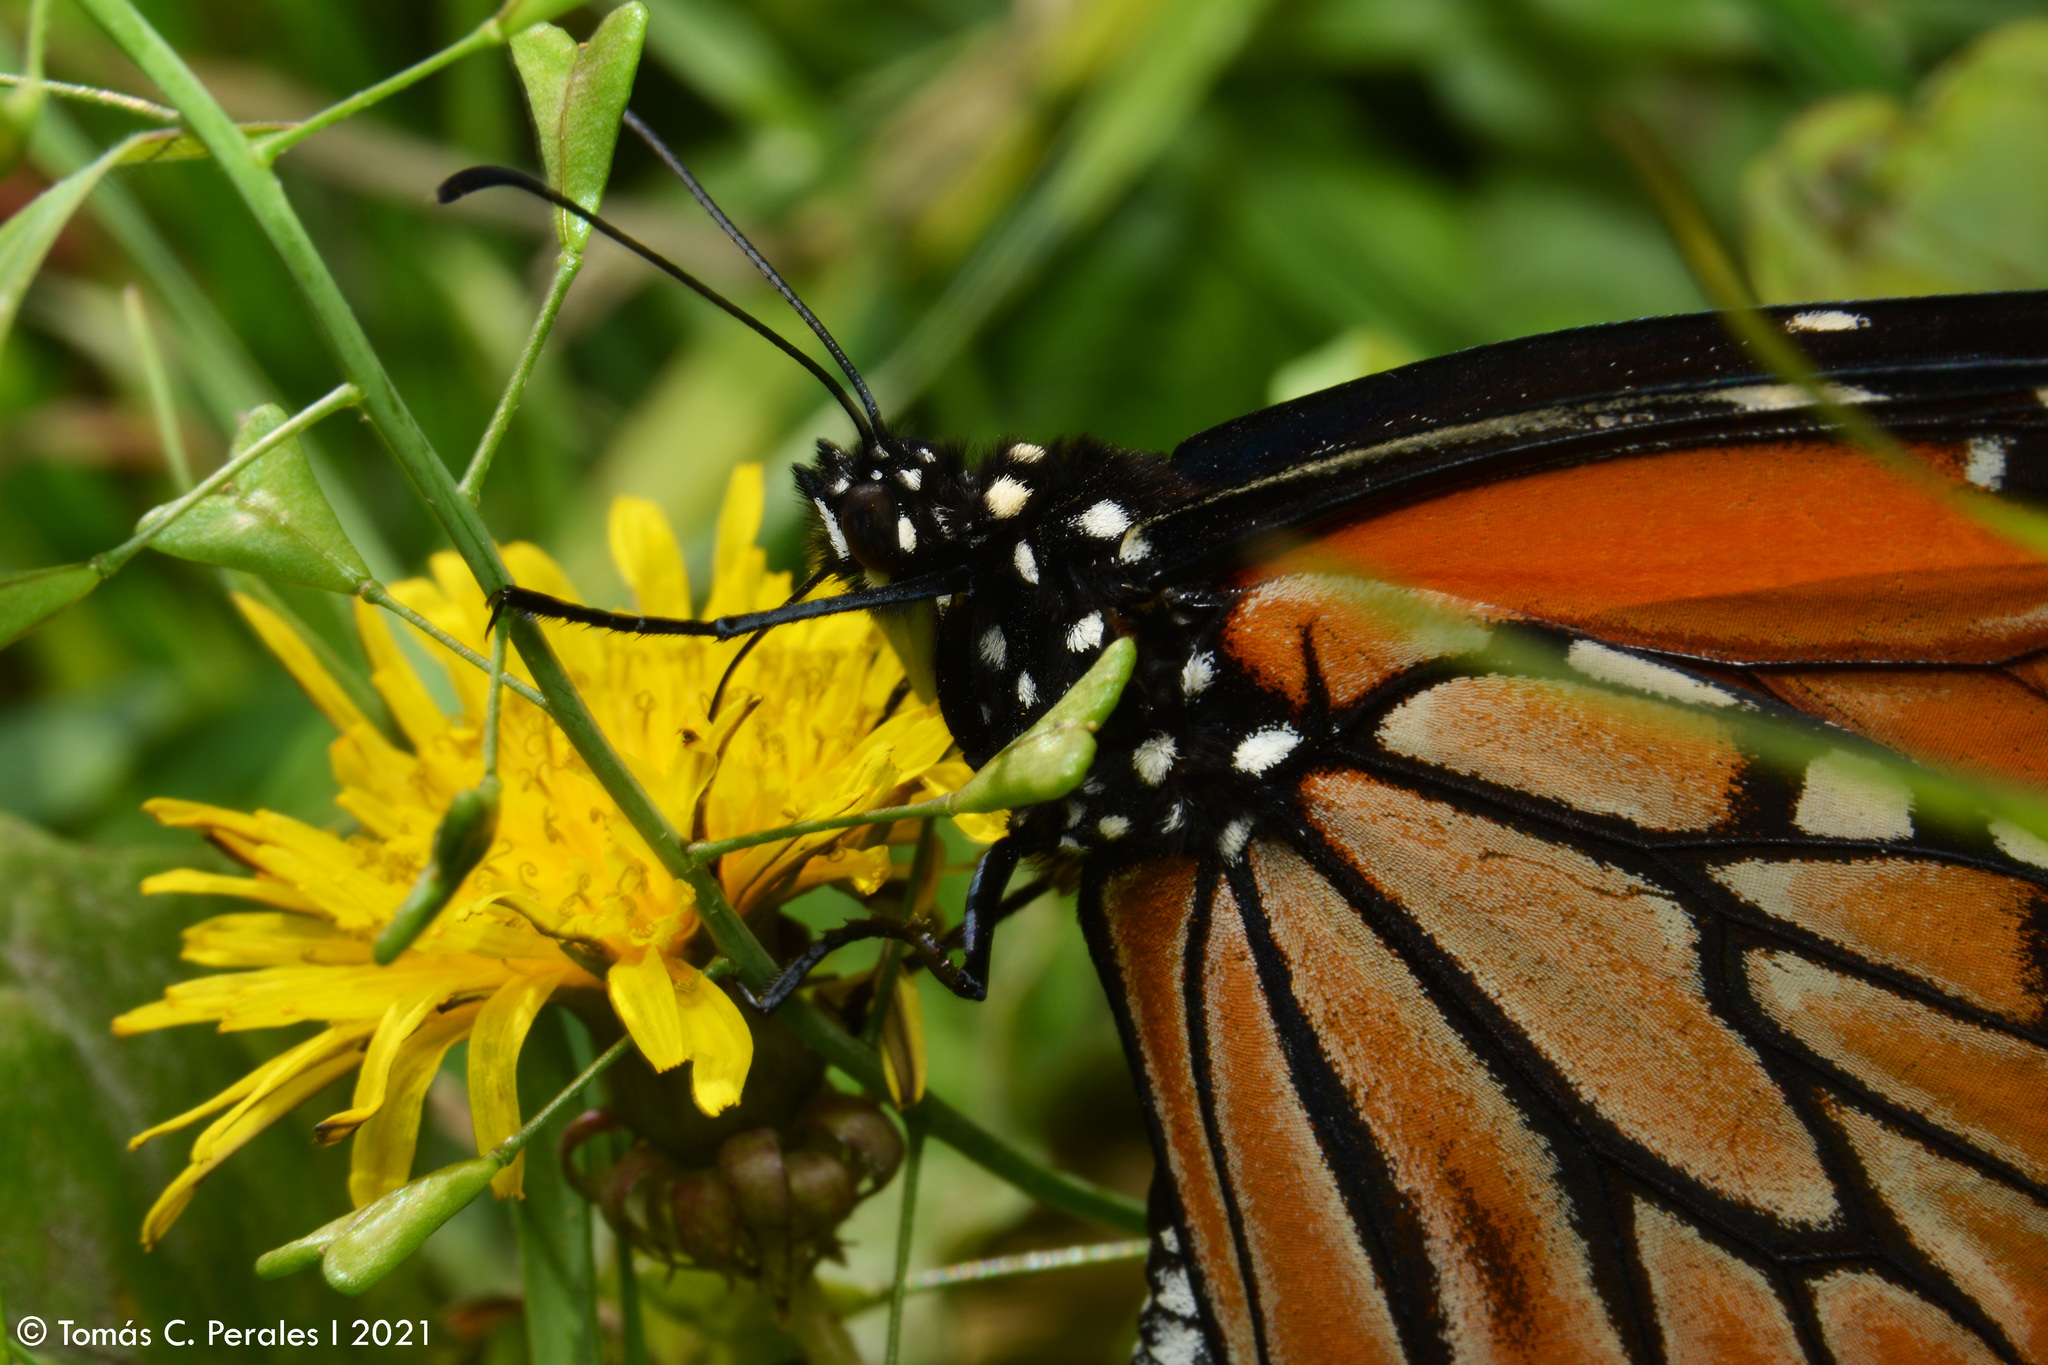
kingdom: Plantae
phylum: Tracheophyta
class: Magnoliopsida
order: Asterales
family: Asteraceae
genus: Taraxacum
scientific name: Taraxacum officinale
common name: Common dandelion
